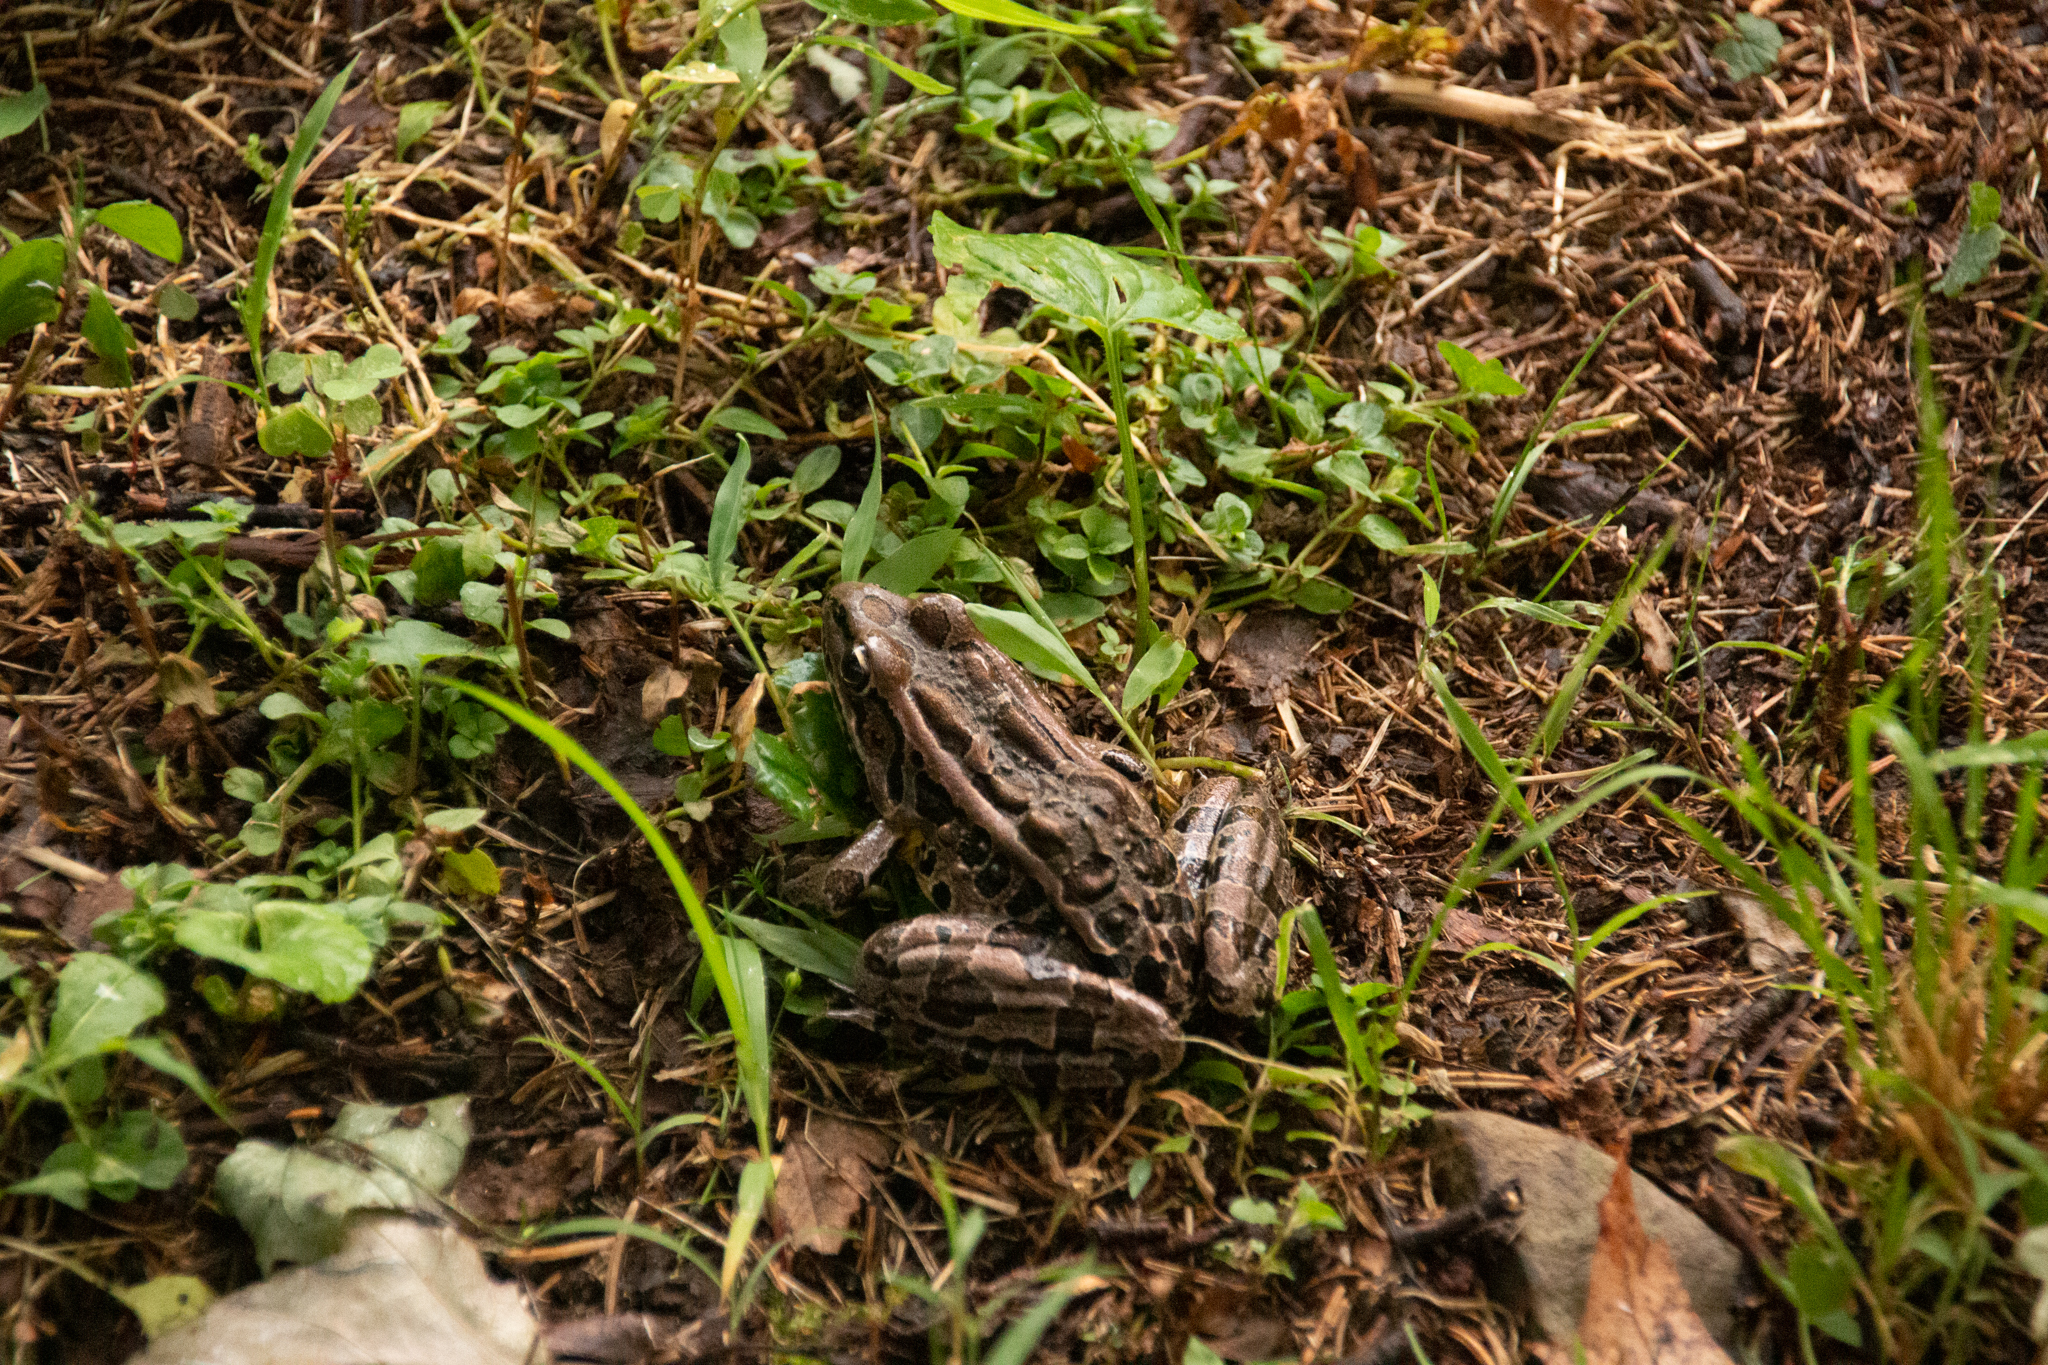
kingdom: Animalia
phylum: Chordata
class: Amphibia
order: Anura
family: Ranidae
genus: Lithobates
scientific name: Lithobates palustris
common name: Pickerel frog
